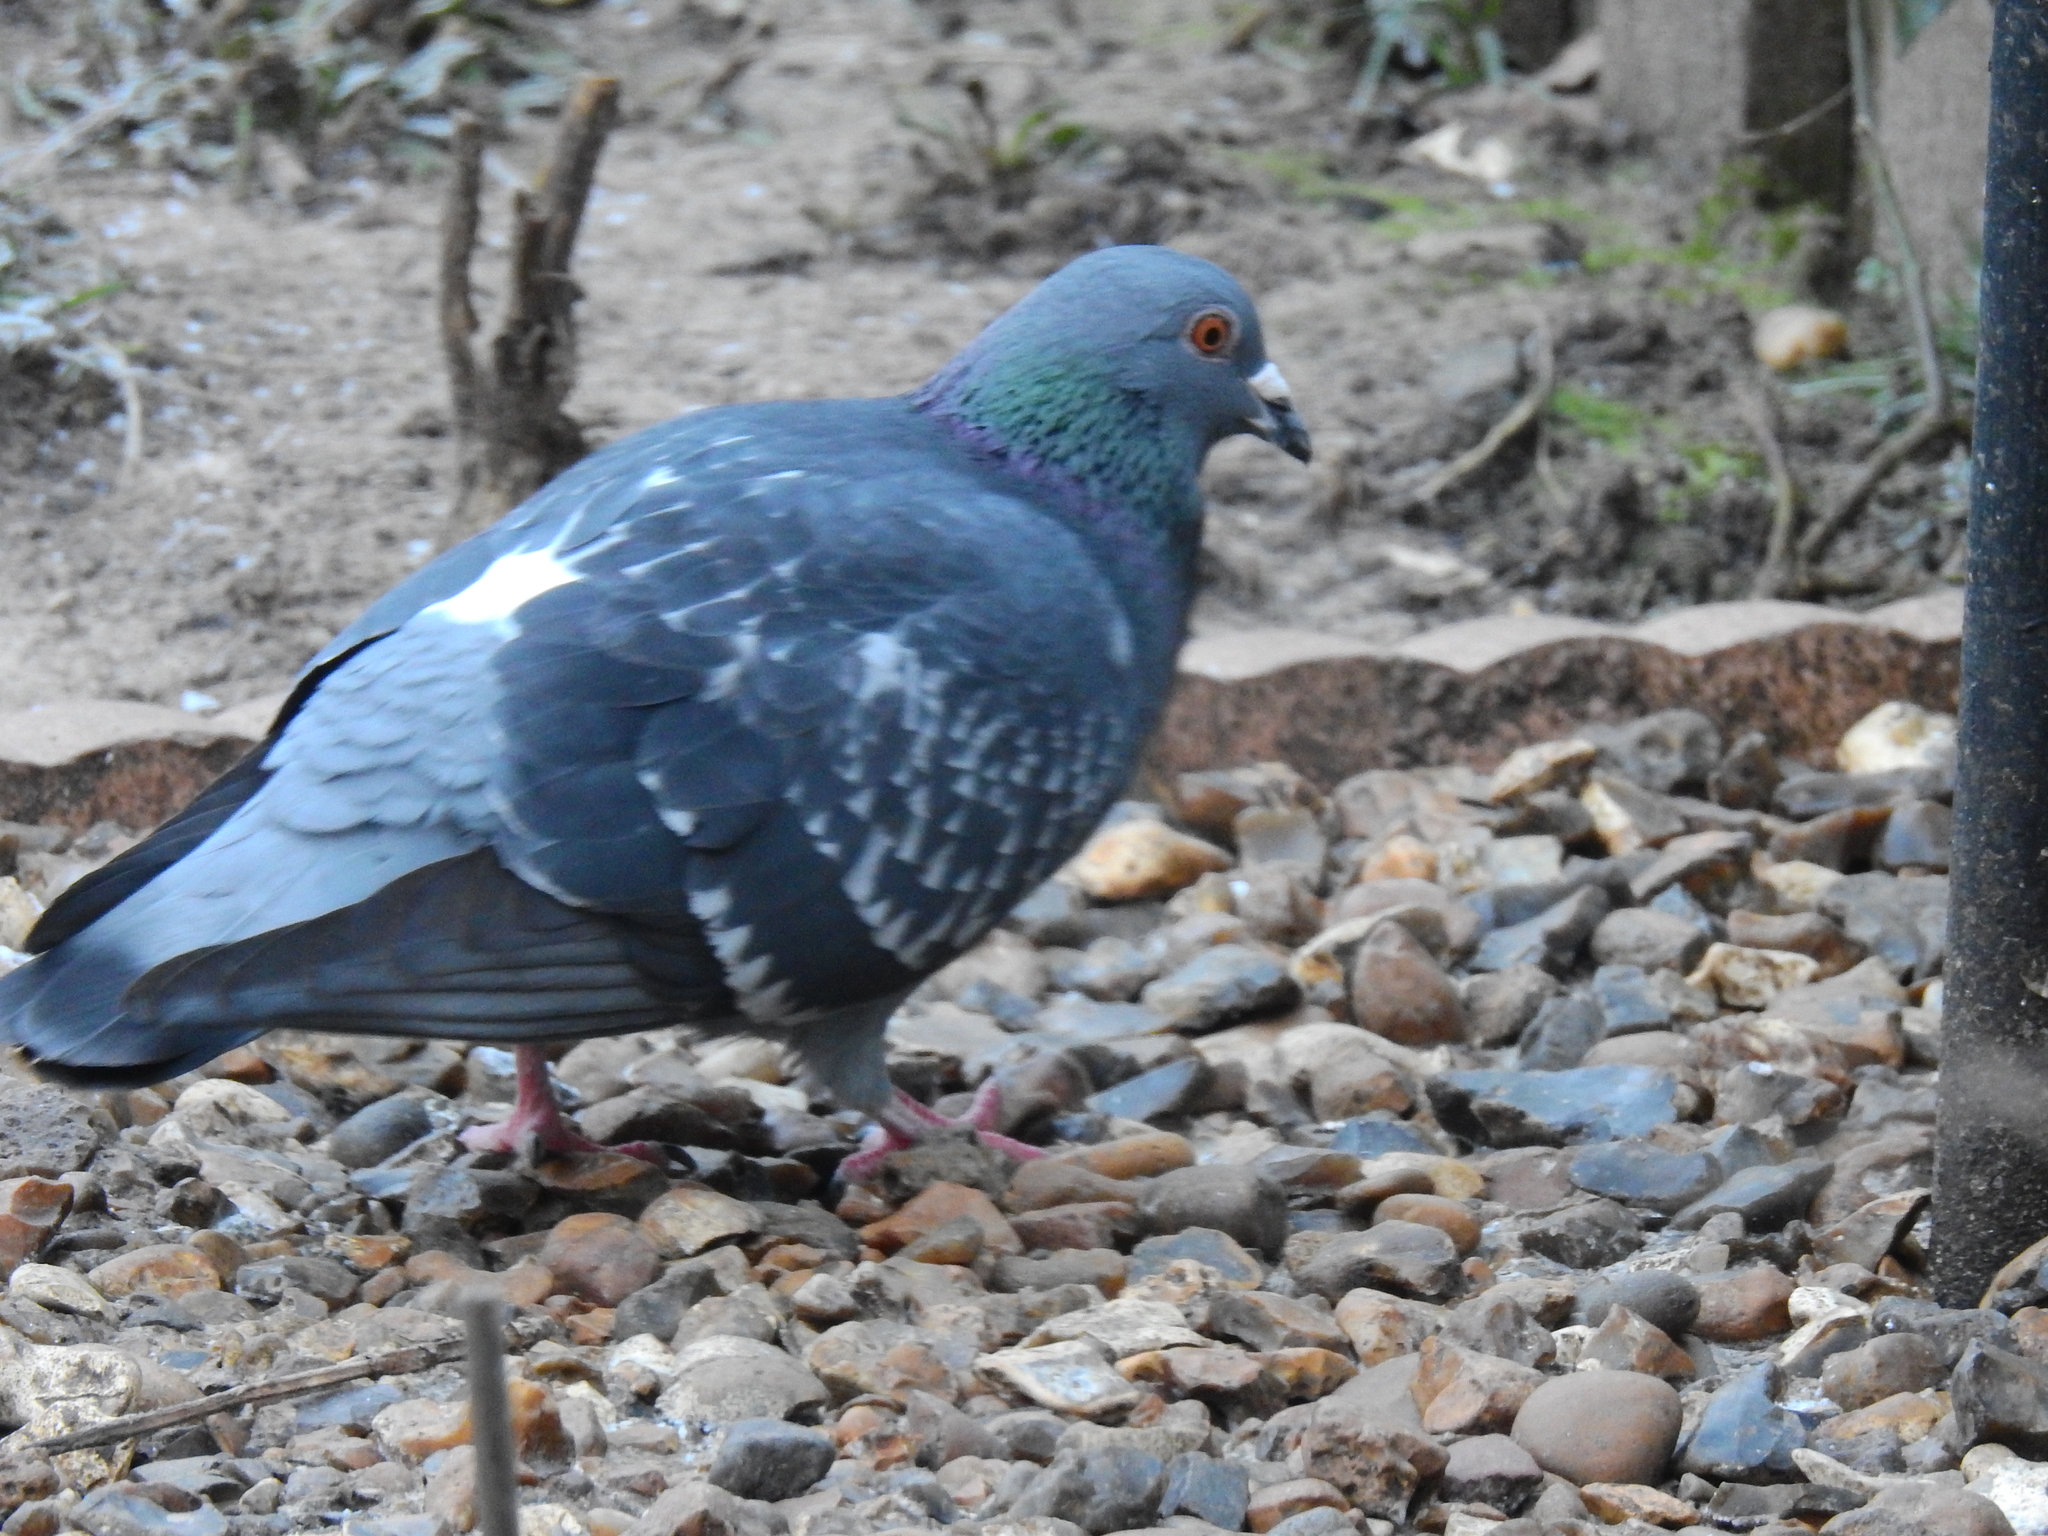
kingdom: Animalia
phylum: Chordata
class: Aves
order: Columbiformes
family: Columbidae
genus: Columba
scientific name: Columba livia
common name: Rock pigeon
